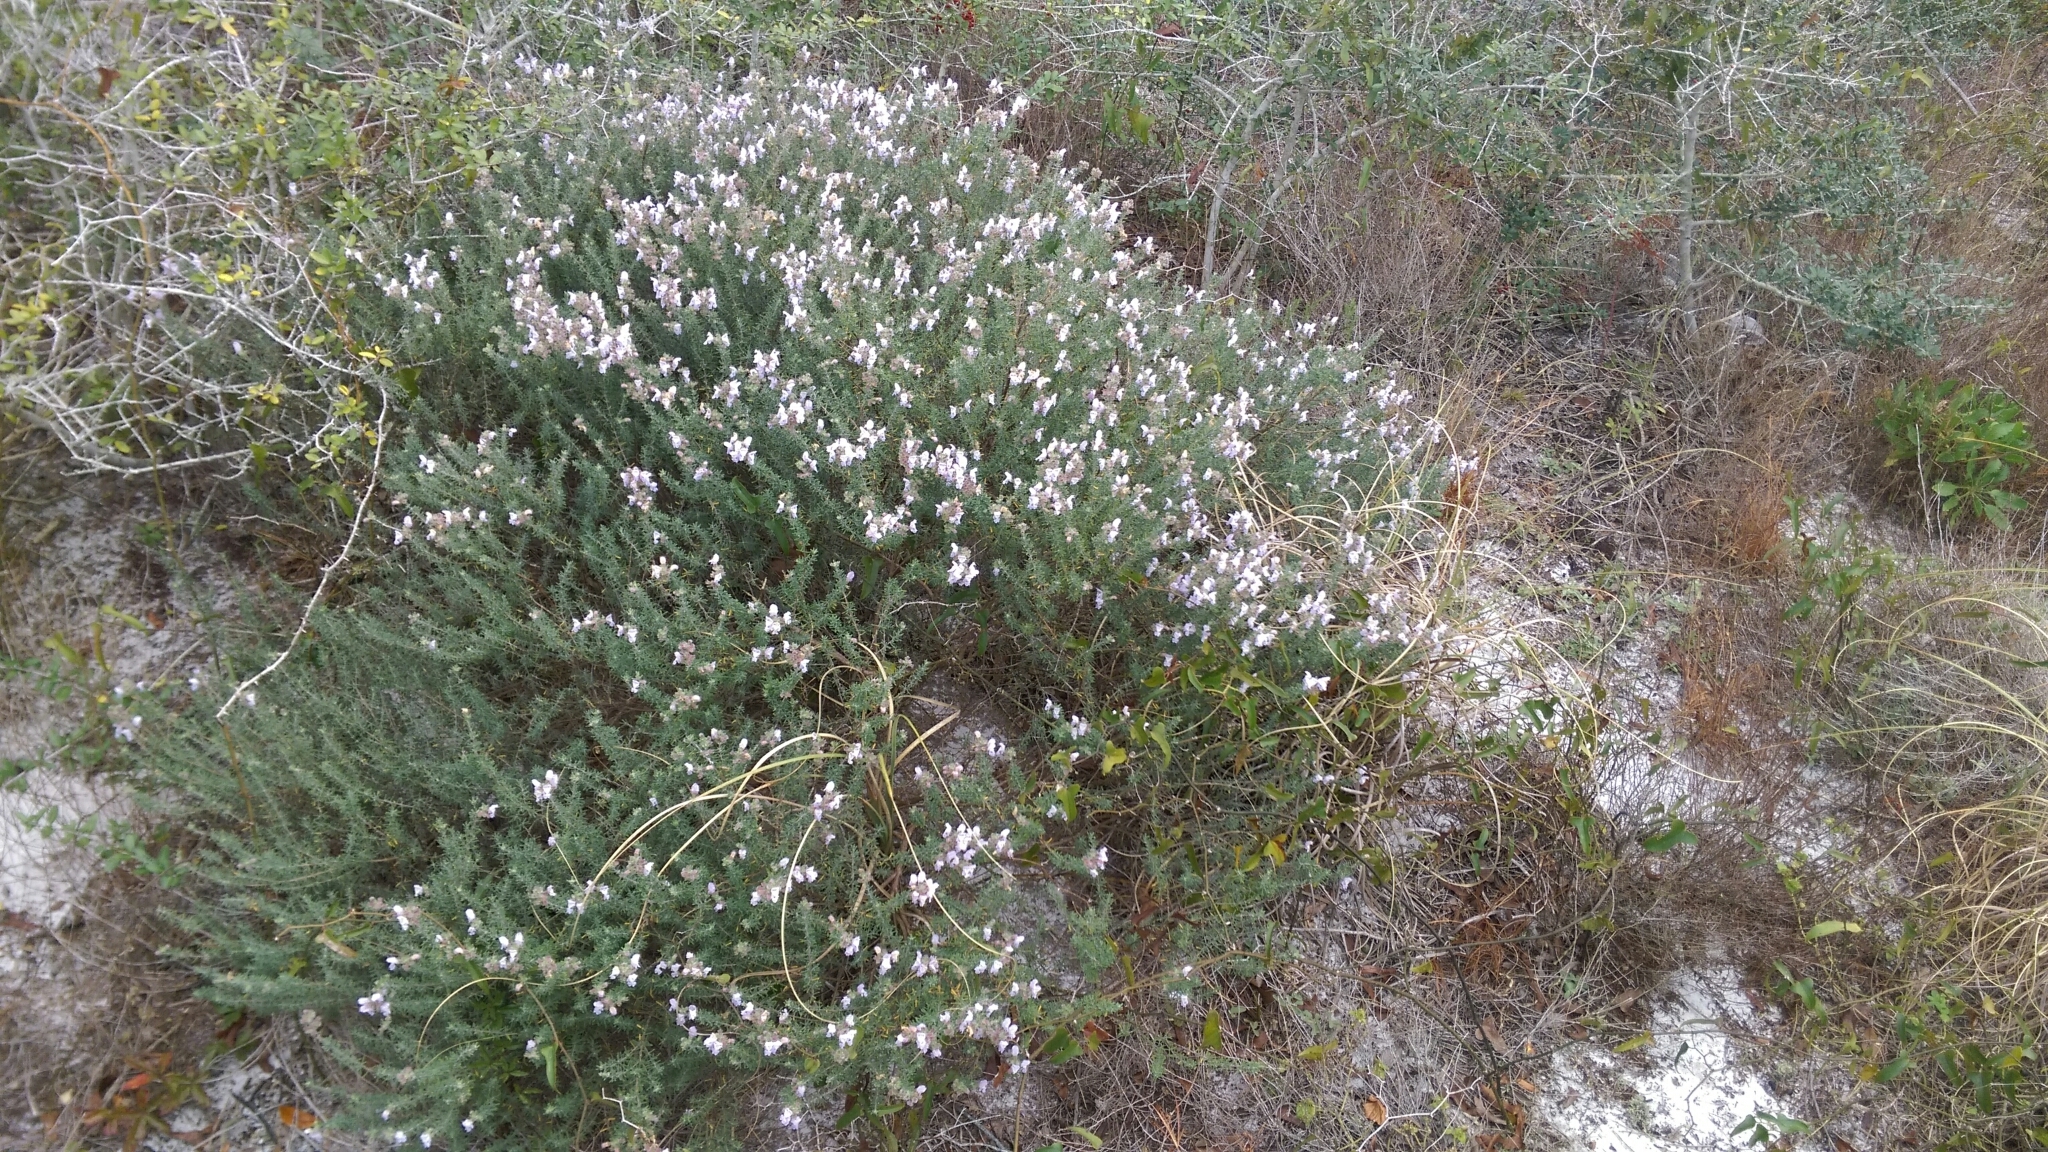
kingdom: Plantae
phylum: Tracheophyta
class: Magnoliopsida
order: Lamiales
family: Lamiaceae
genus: Conradina
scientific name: Conradina canescens
